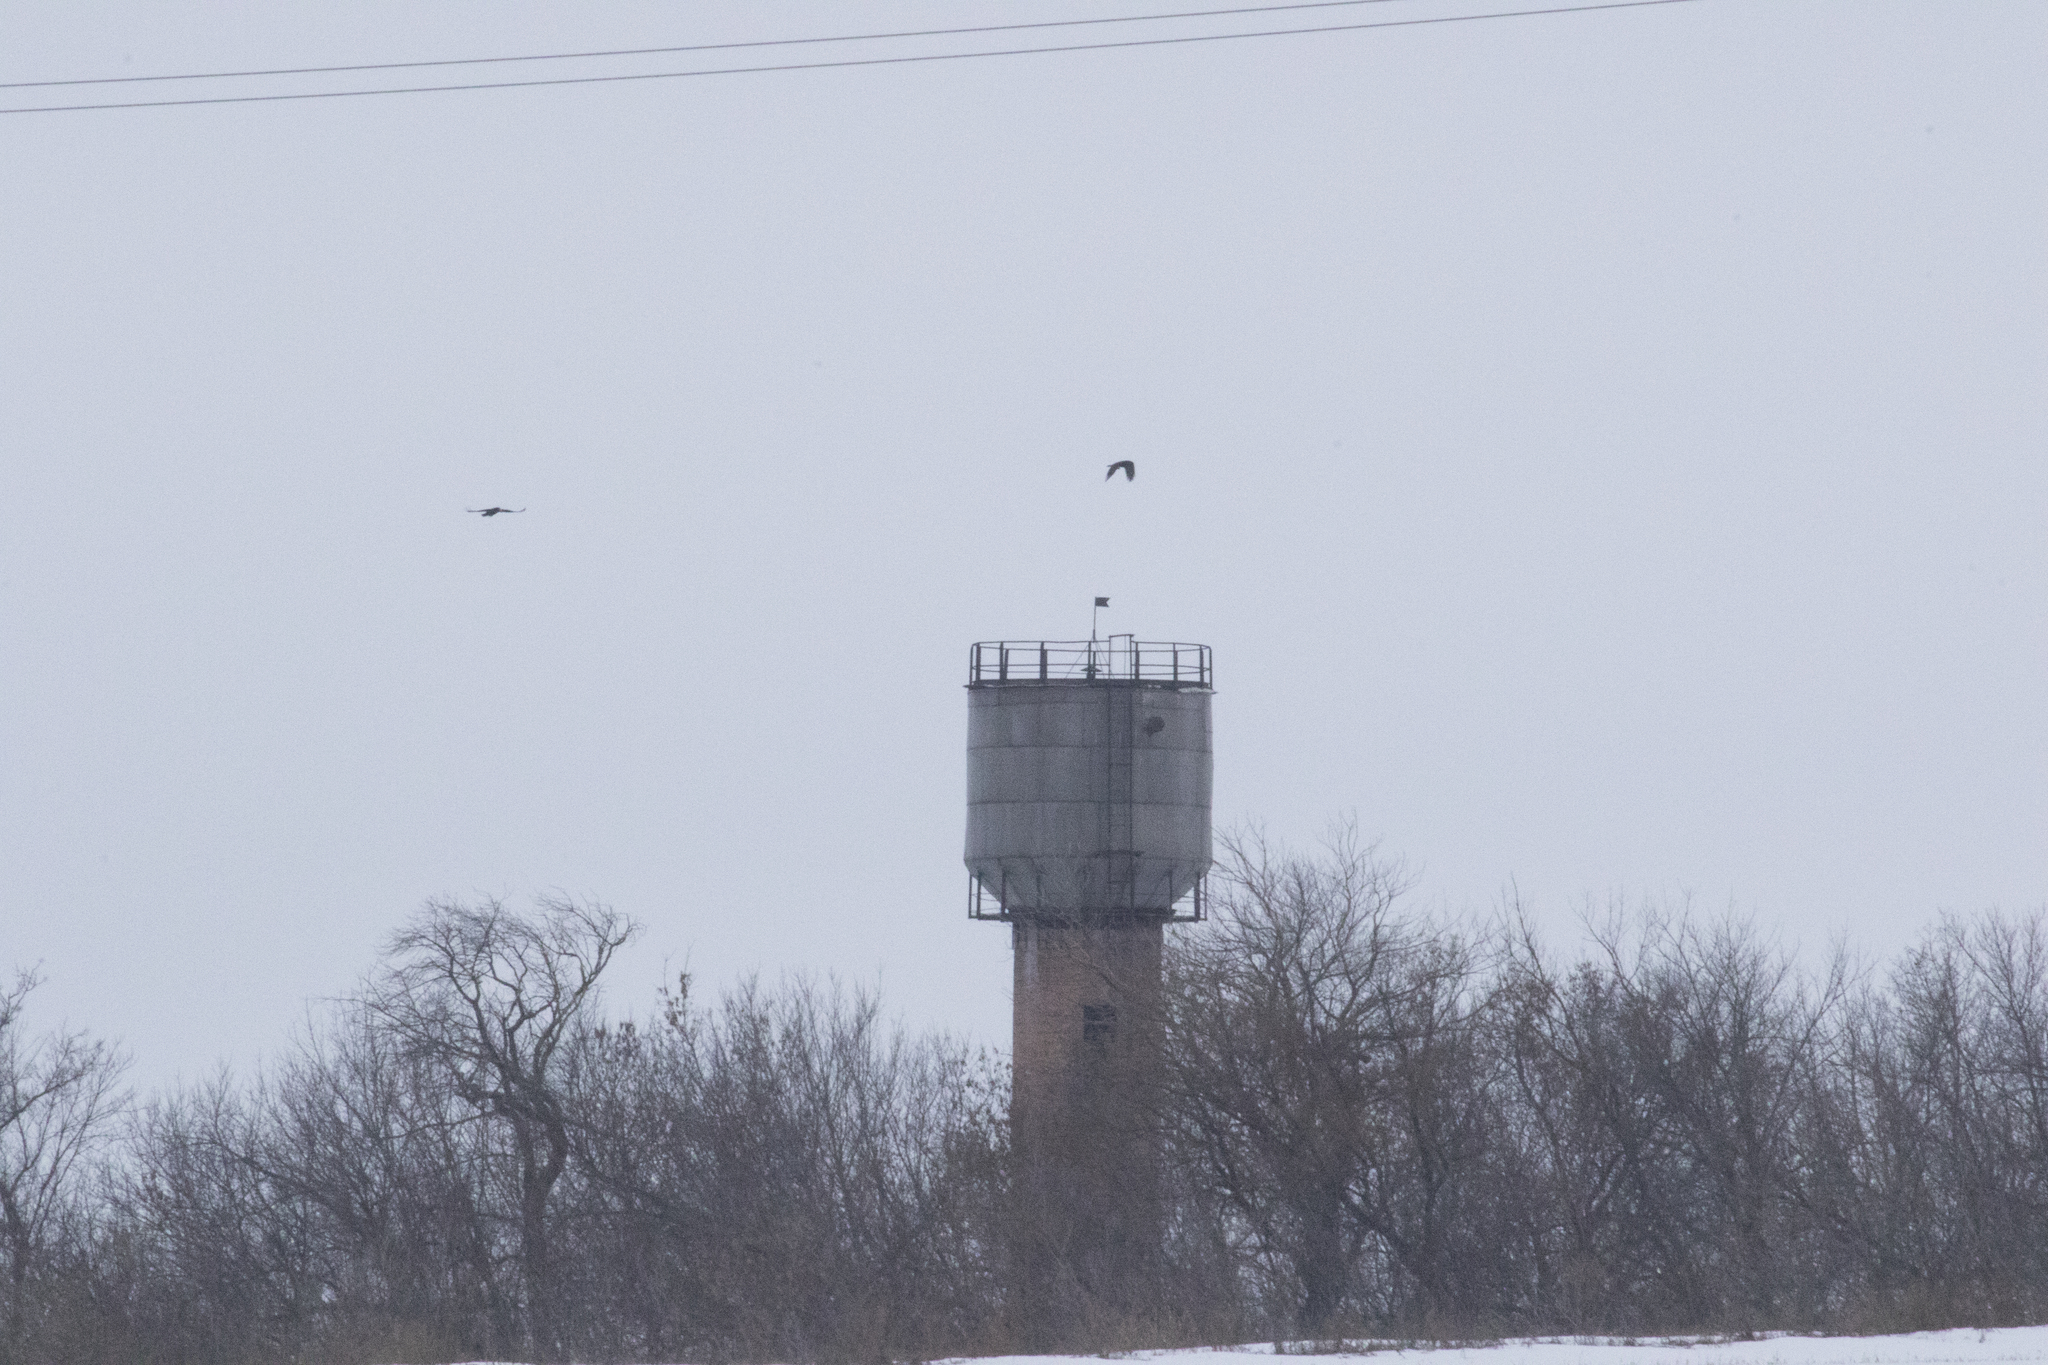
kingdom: Animalia
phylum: Chordata
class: Aves
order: Passeriformes
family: Corvidae
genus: Corvus
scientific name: Corvus corax
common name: Common raven
